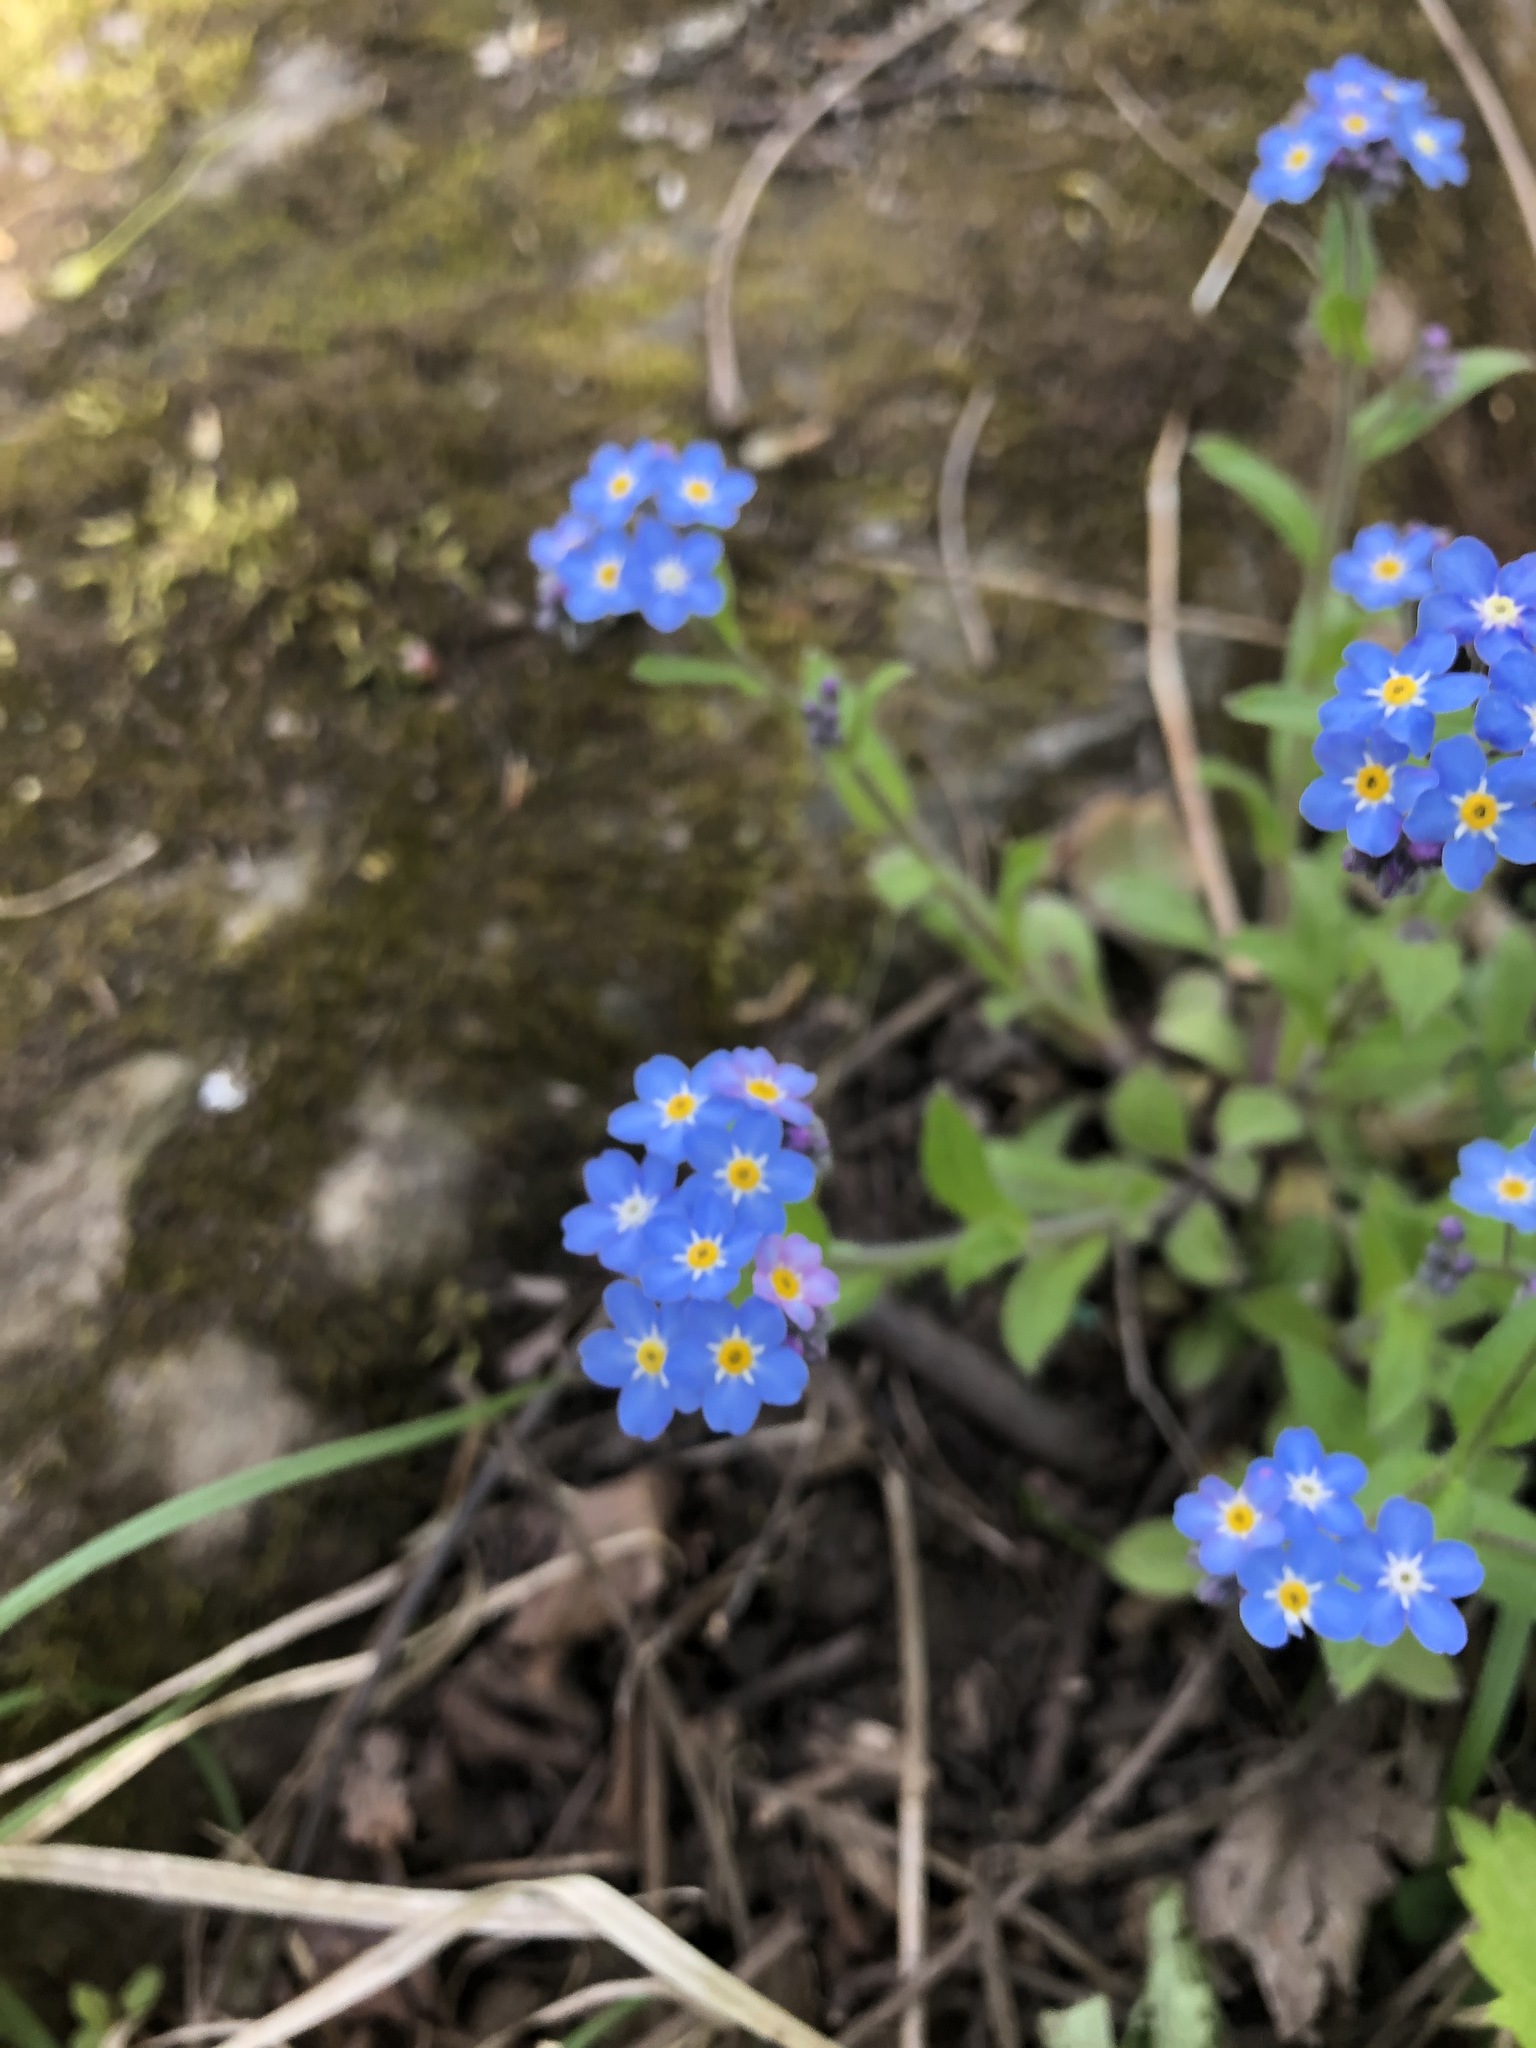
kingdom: Plantae
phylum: Tracheophyta
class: Magnoliopsida
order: Boraginales
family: Boraginaceae
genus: Myosotis
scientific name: Myosotis sylvatica
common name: Wood forget-me-not
